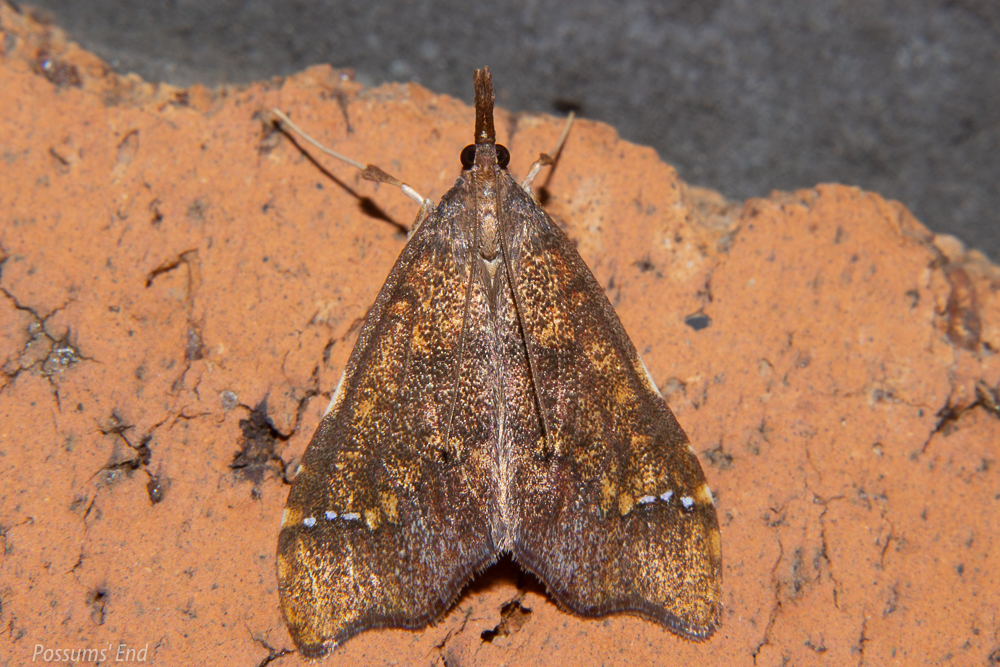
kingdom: Animalia
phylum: Arthropoda
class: Insecta
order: Lepidoptera
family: Crambidae
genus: Deana
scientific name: Deana hybreasalis
